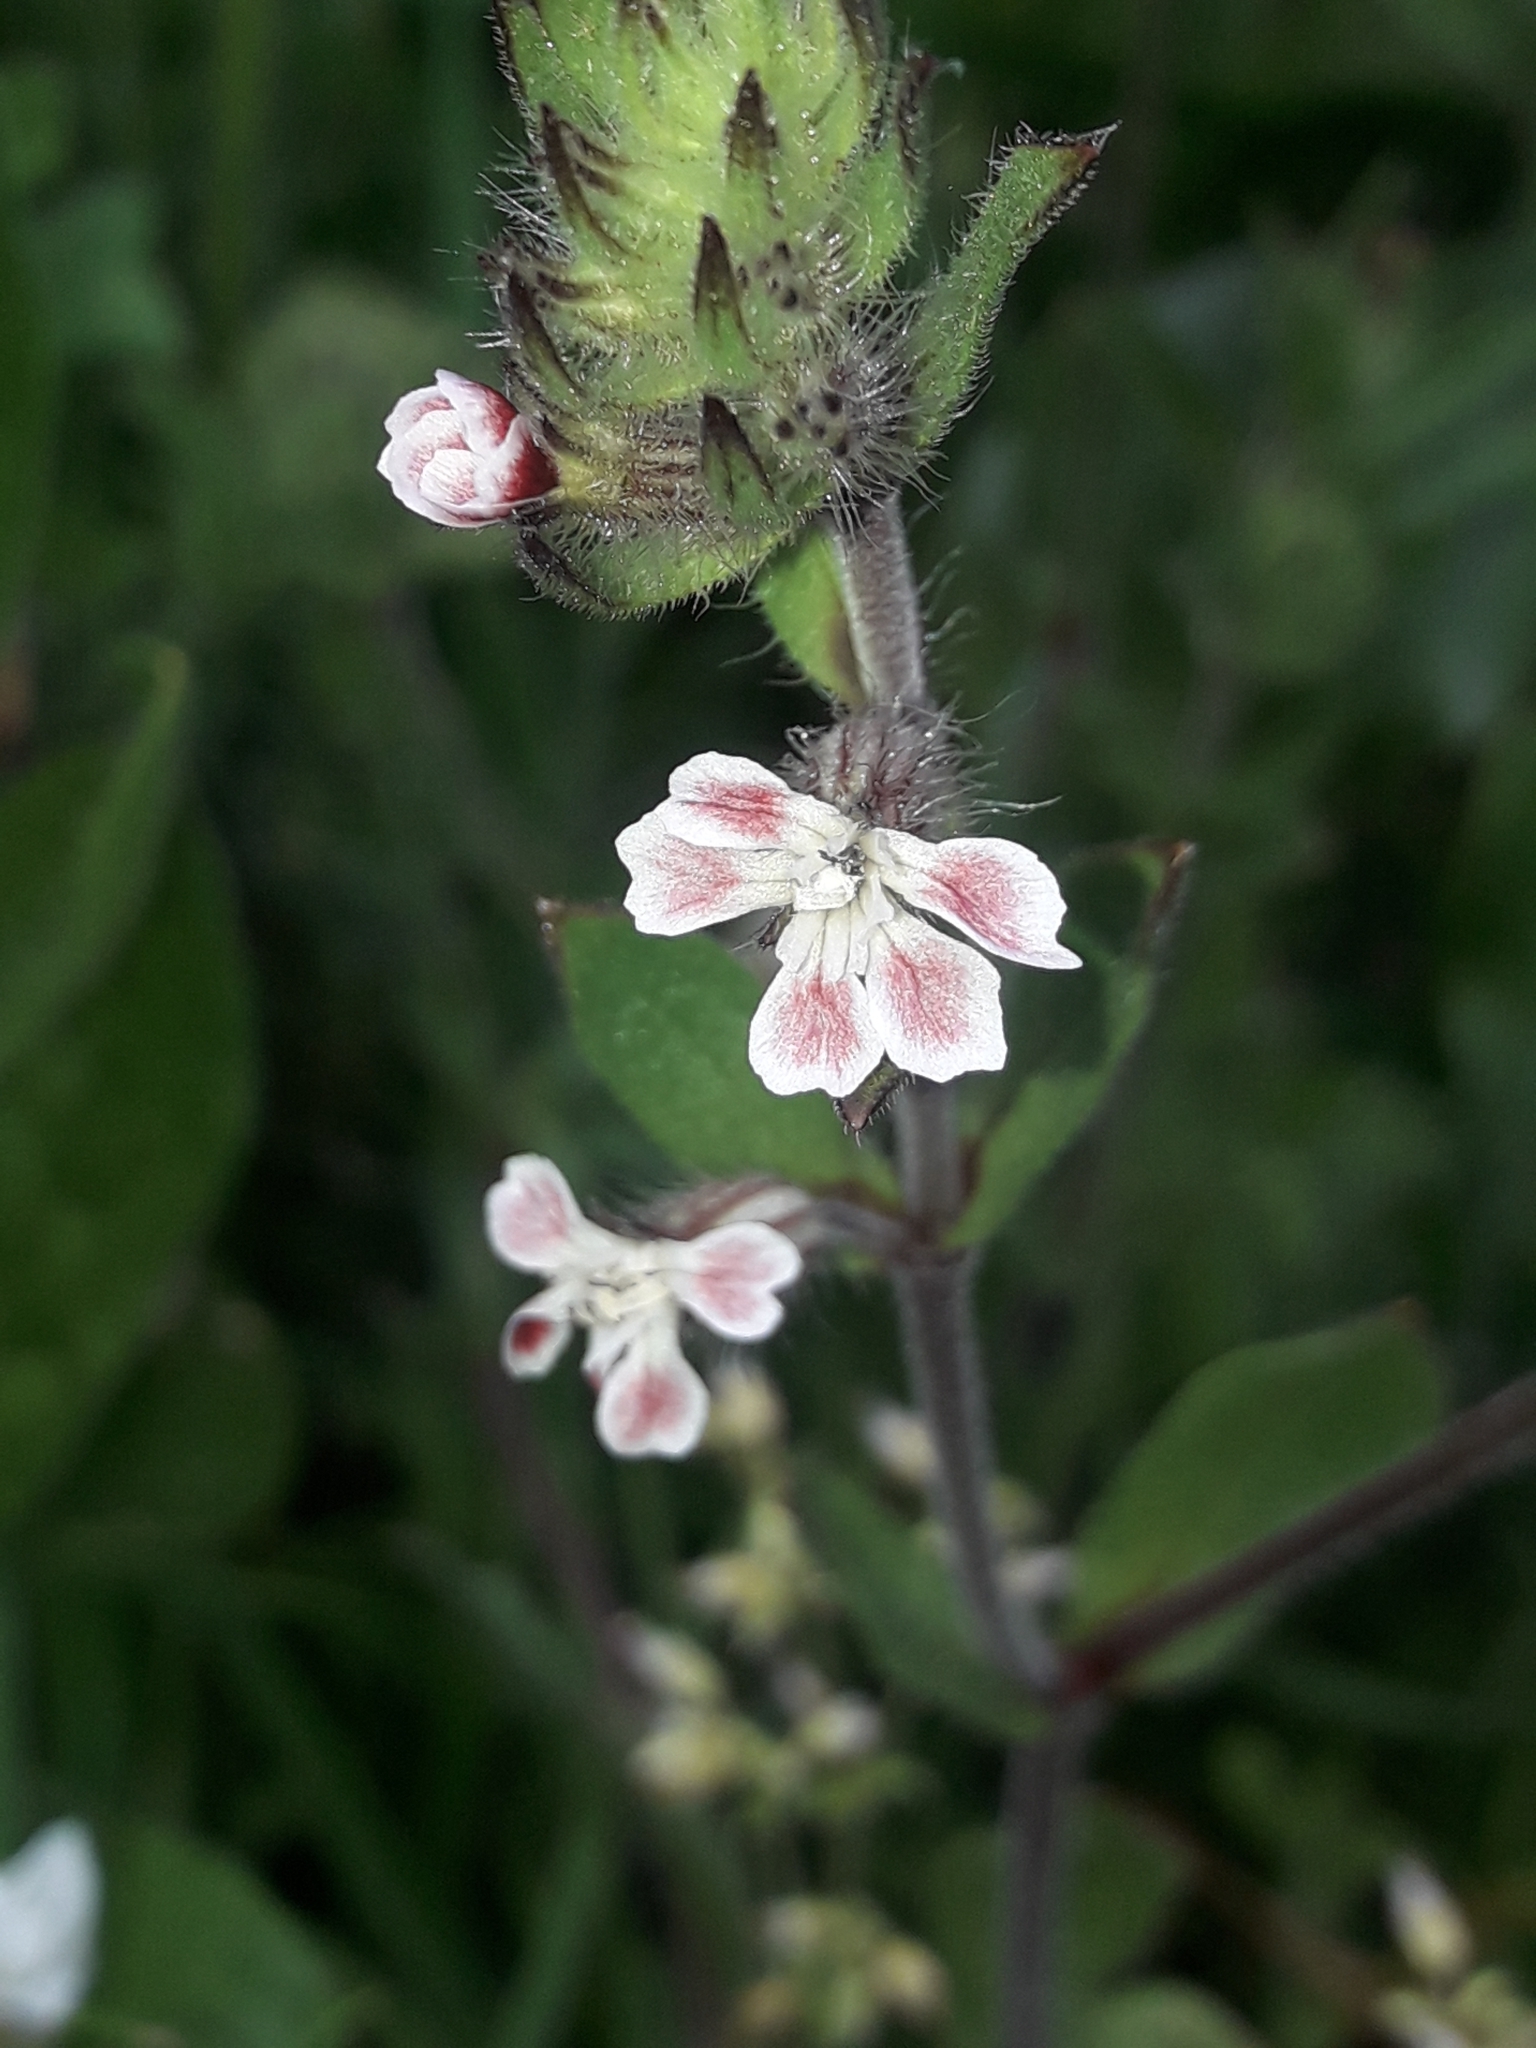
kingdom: Plantae
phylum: Tracheophyta
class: Magnoliopsida
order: Caryophyllales
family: Caryophyllaceae
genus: Silene
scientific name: Silene gallica
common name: Small-flowered catchfly
